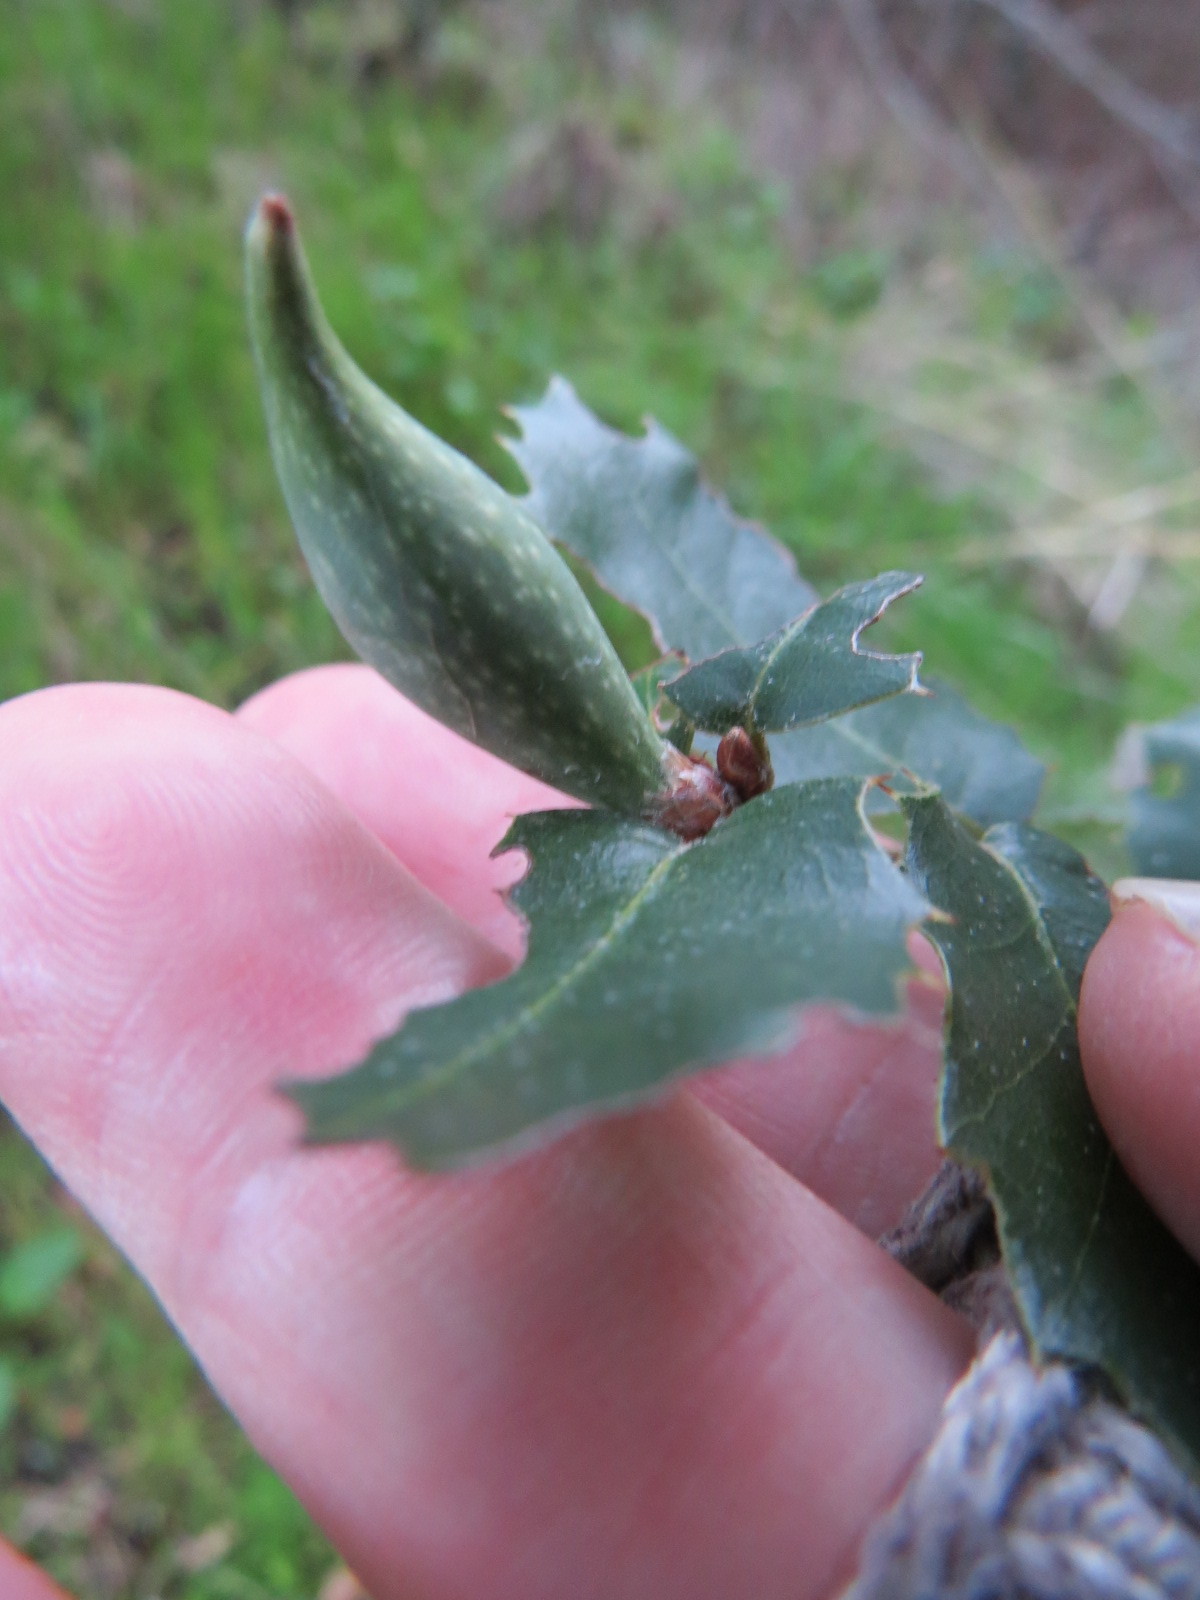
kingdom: Animalia
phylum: Arthropoda
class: Insecta
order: Hymenoptera
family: Cynipidae
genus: Heteroecus
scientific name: Heteroecus pacificus
